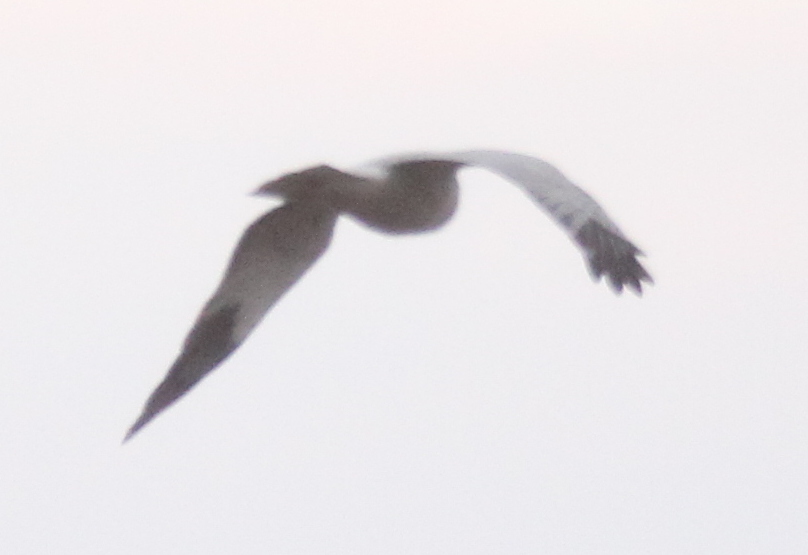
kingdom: Animalia
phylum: Chordata
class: Aves
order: Accipitriformes
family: Accipitridae
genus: Circus
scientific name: Circus cyaneus
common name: Hen harrier
